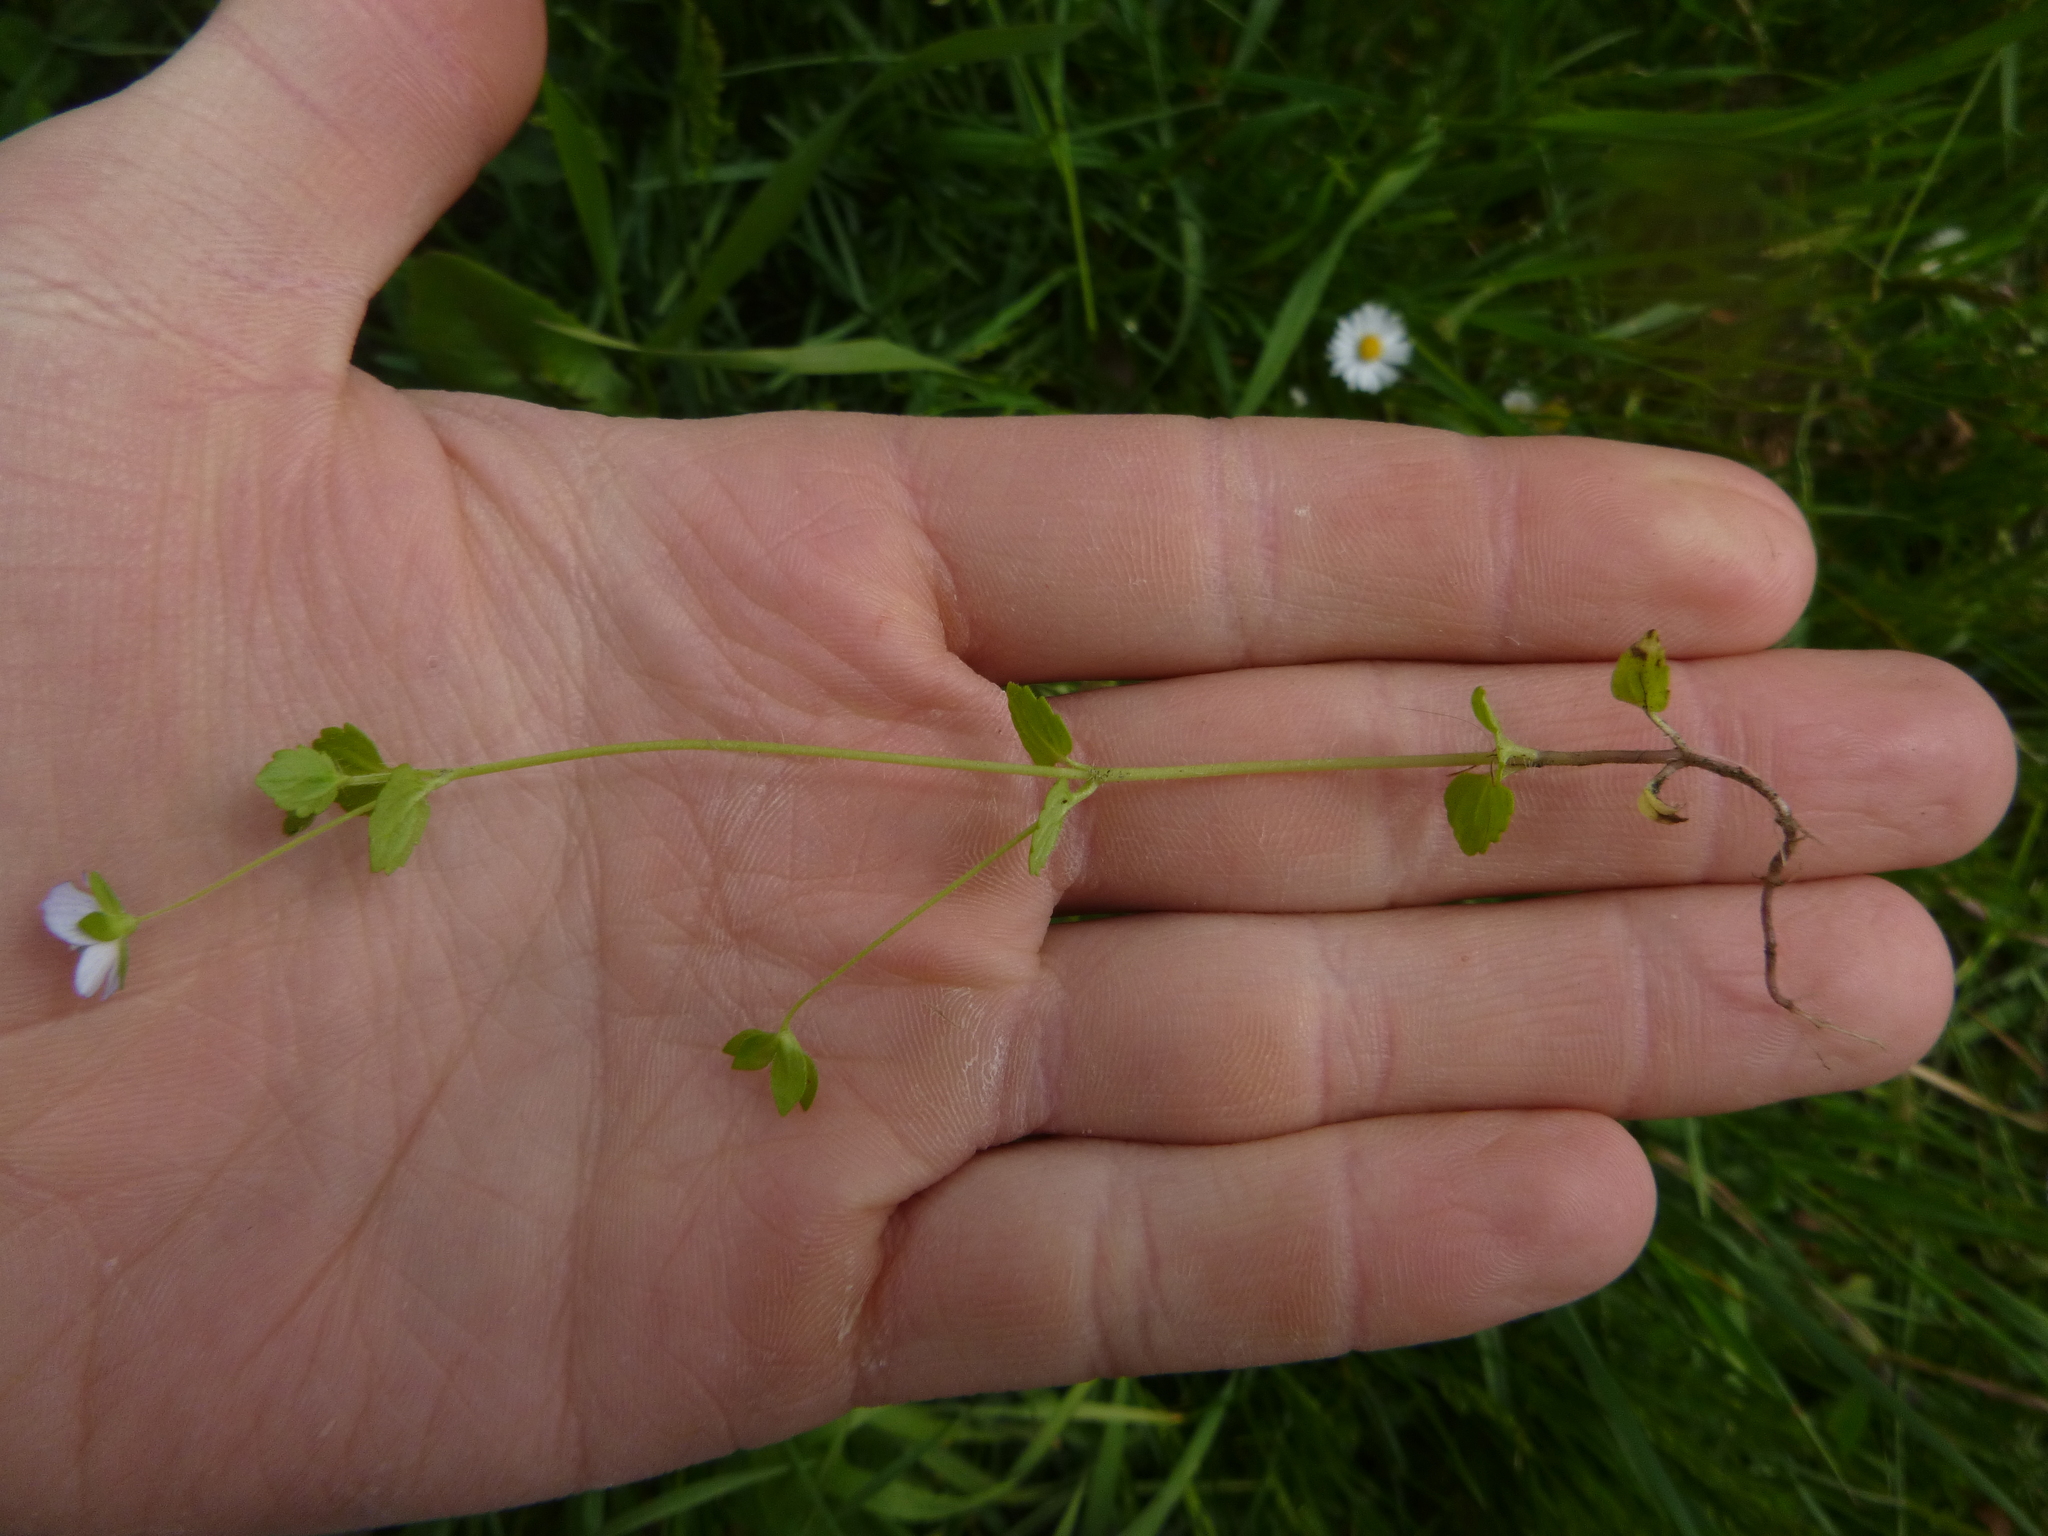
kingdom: Plantae
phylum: Tracheophyta
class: Magnoliopsida
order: Lamiales
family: Plantaginaceae
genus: Veronica
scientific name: Veronica persica
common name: Common field-speedwell
